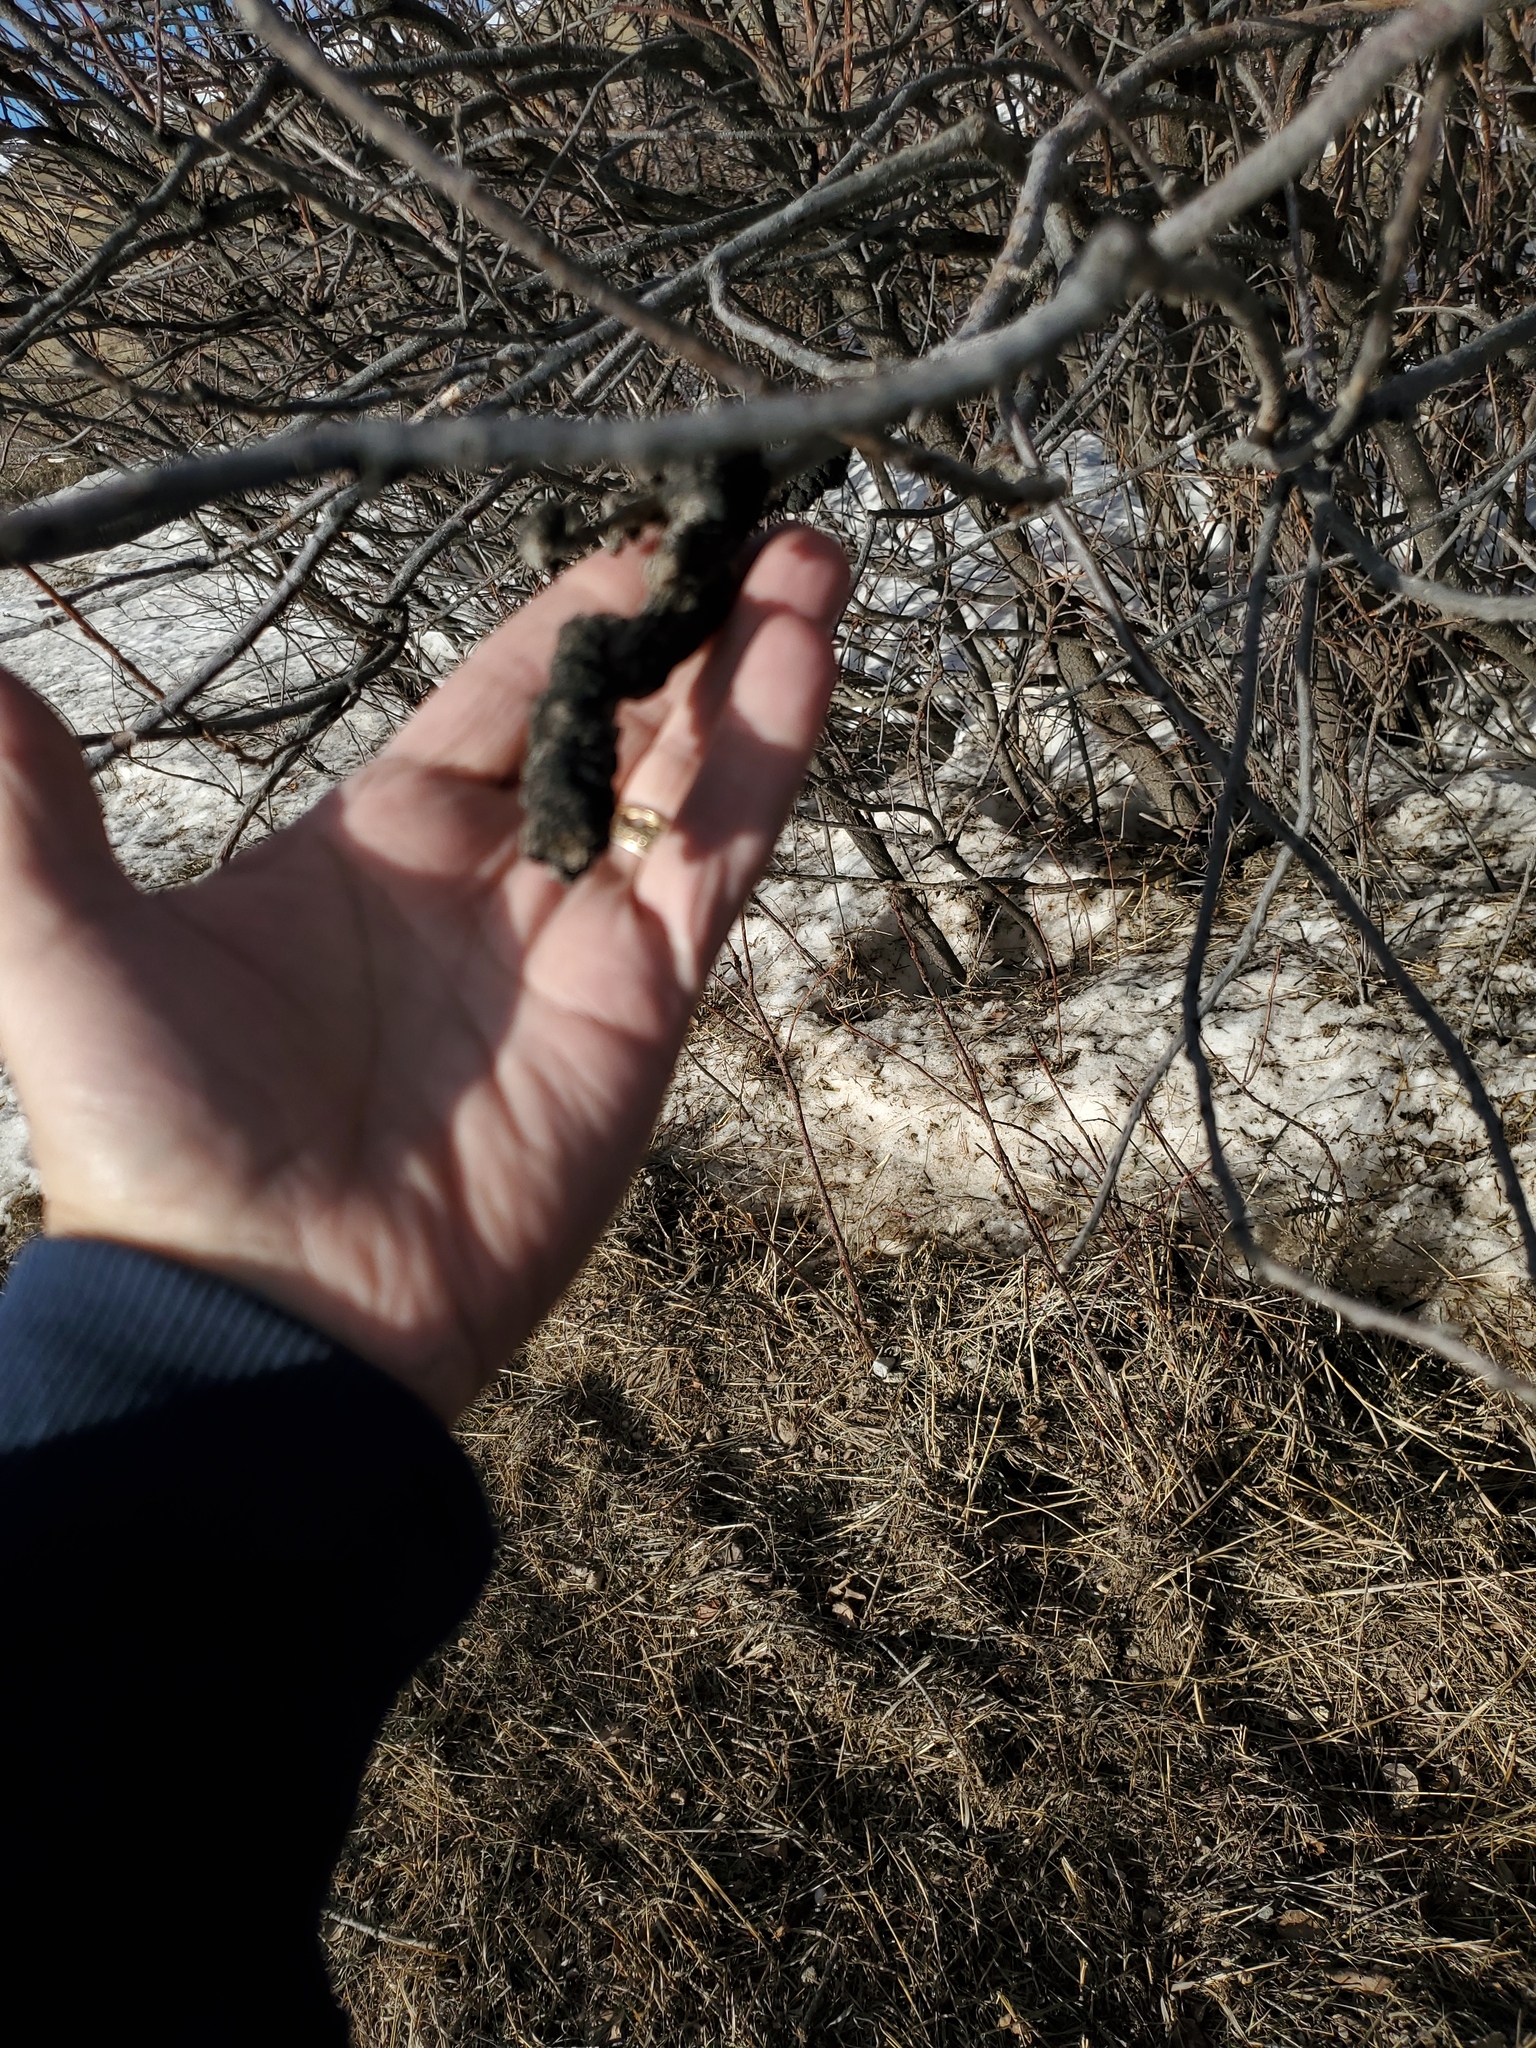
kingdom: Fungi
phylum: Ascomycota
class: Dothideomycetes
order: Venturiales
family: Venturiaceae
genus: Apiosporina
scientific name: Apiosporina morbosa
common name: Black knot
